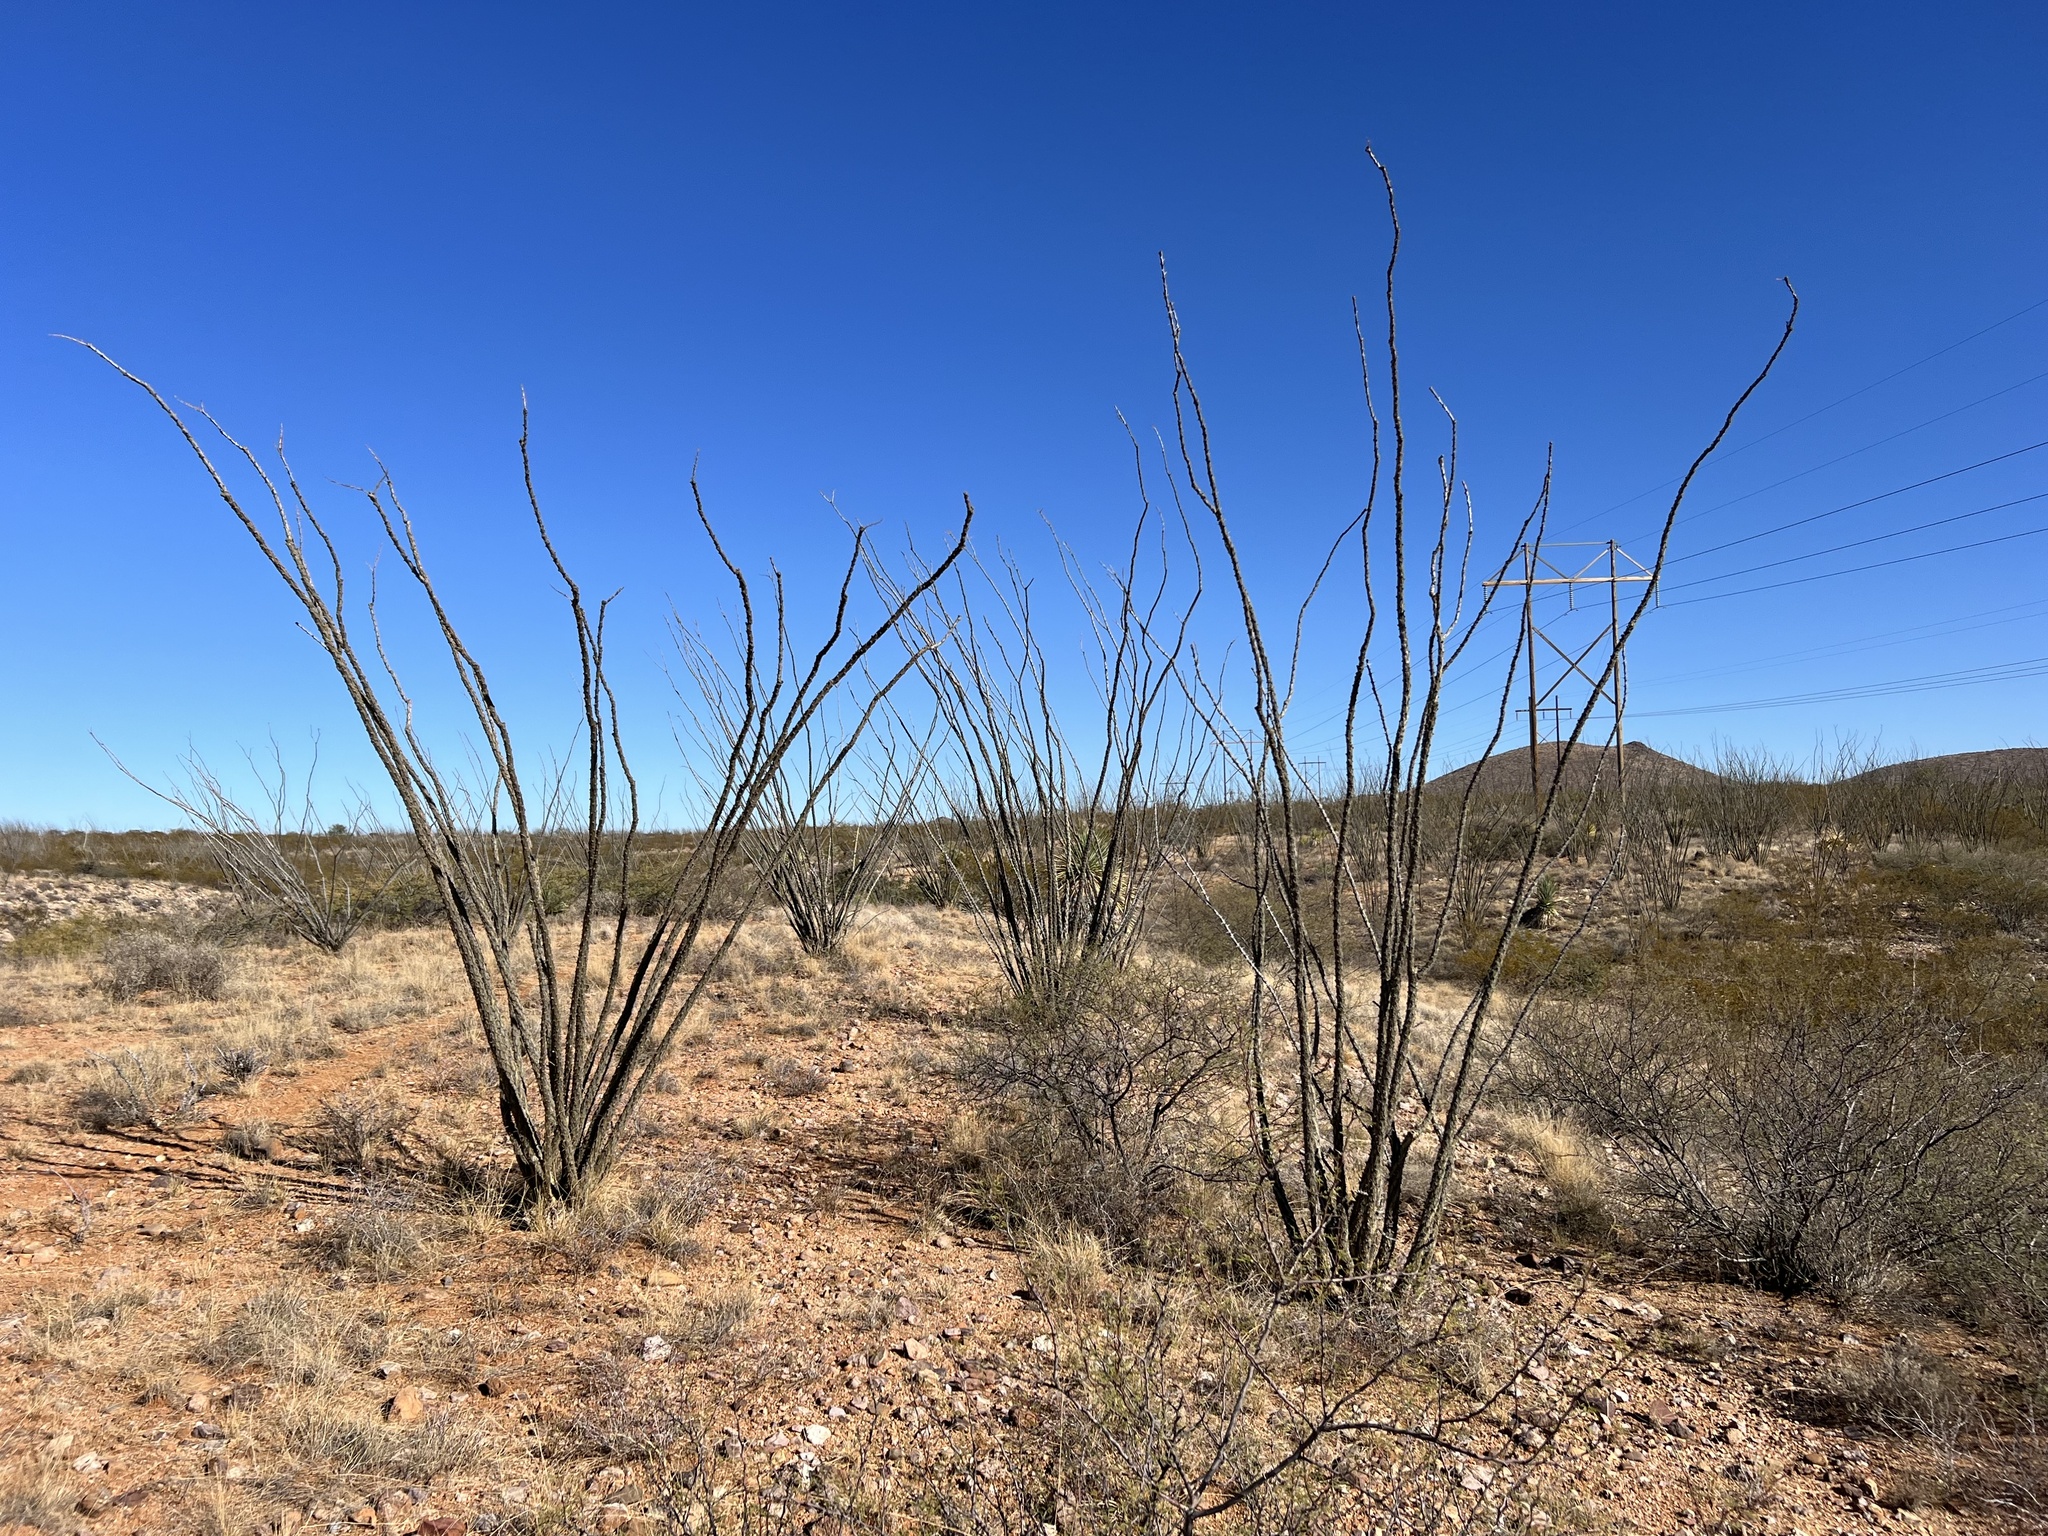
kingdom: Plantae
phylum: Tracheophyta
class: Magnoliopsida
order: Ericales
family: Fouquieriaceae
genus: Fouquieria
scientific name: Fouquieria splendens
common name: Vine-cactus
